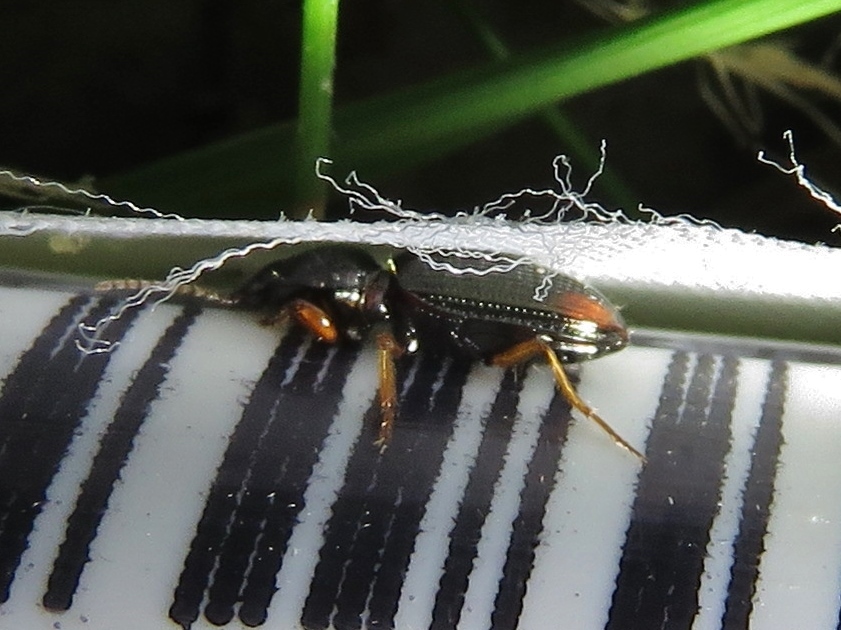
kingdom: Animalia
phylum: Arthropoda
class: Insecta
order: Coleoptera
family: Carabidae
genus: Aspidoglossa
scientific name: Aspidoglossa subangulata
